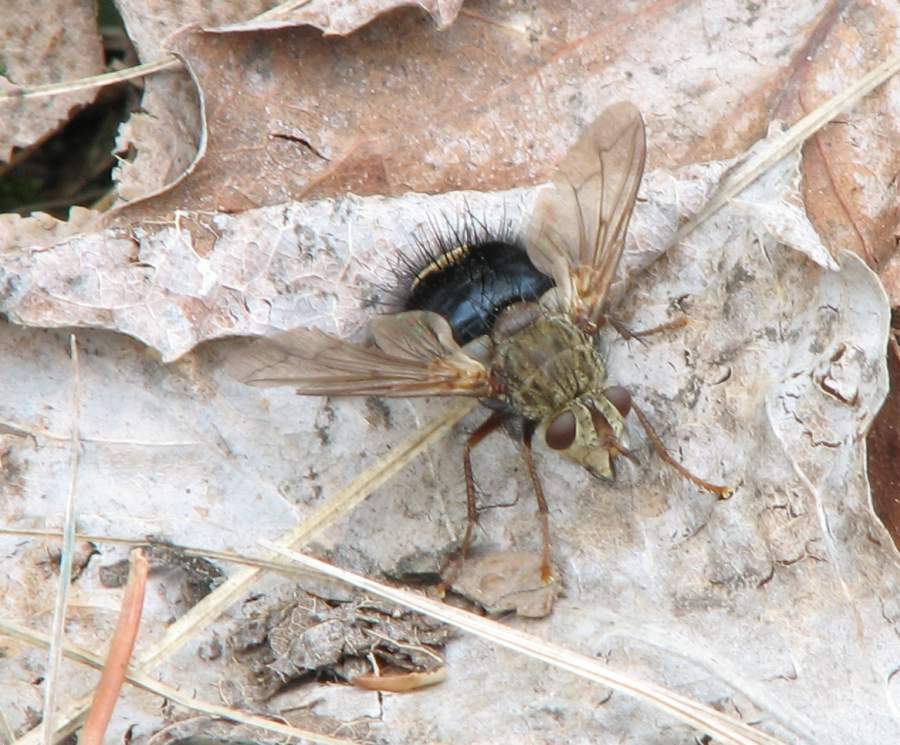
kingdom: Animalia
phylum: Arthropoda
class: Insecta
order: Diptera
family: Tachinidae
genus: Epalpus
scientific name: Epalpus signifer
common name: Early tachinid fly
